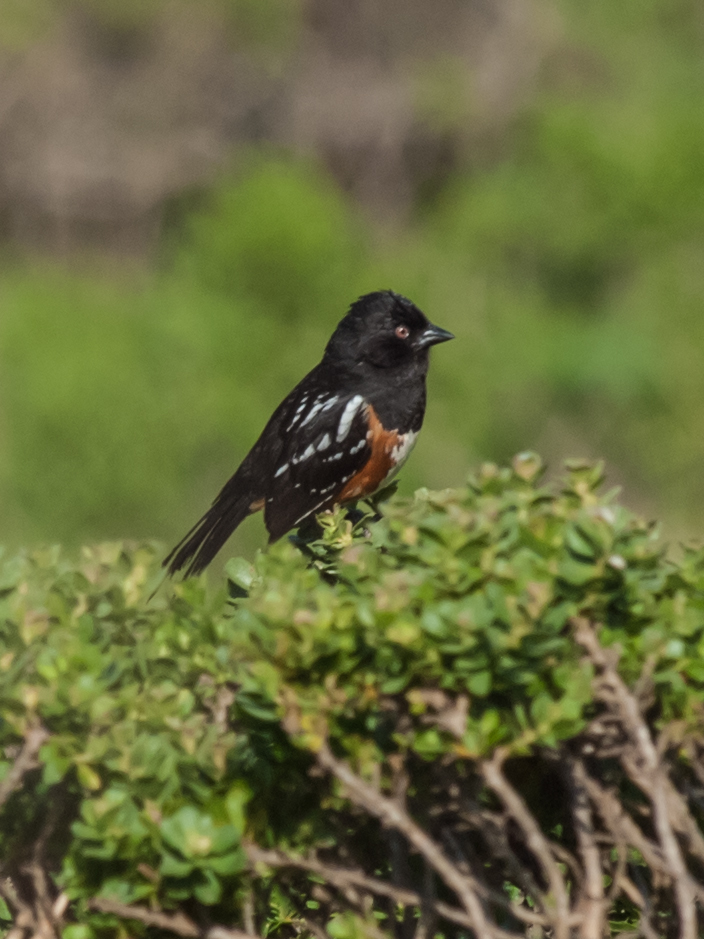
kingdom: Animalia
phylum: Chordata
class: Aves
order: Passeriformes
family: Passerellidae
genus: Pipilo
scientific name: Pipilo maculatus
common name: Spotted towhee
